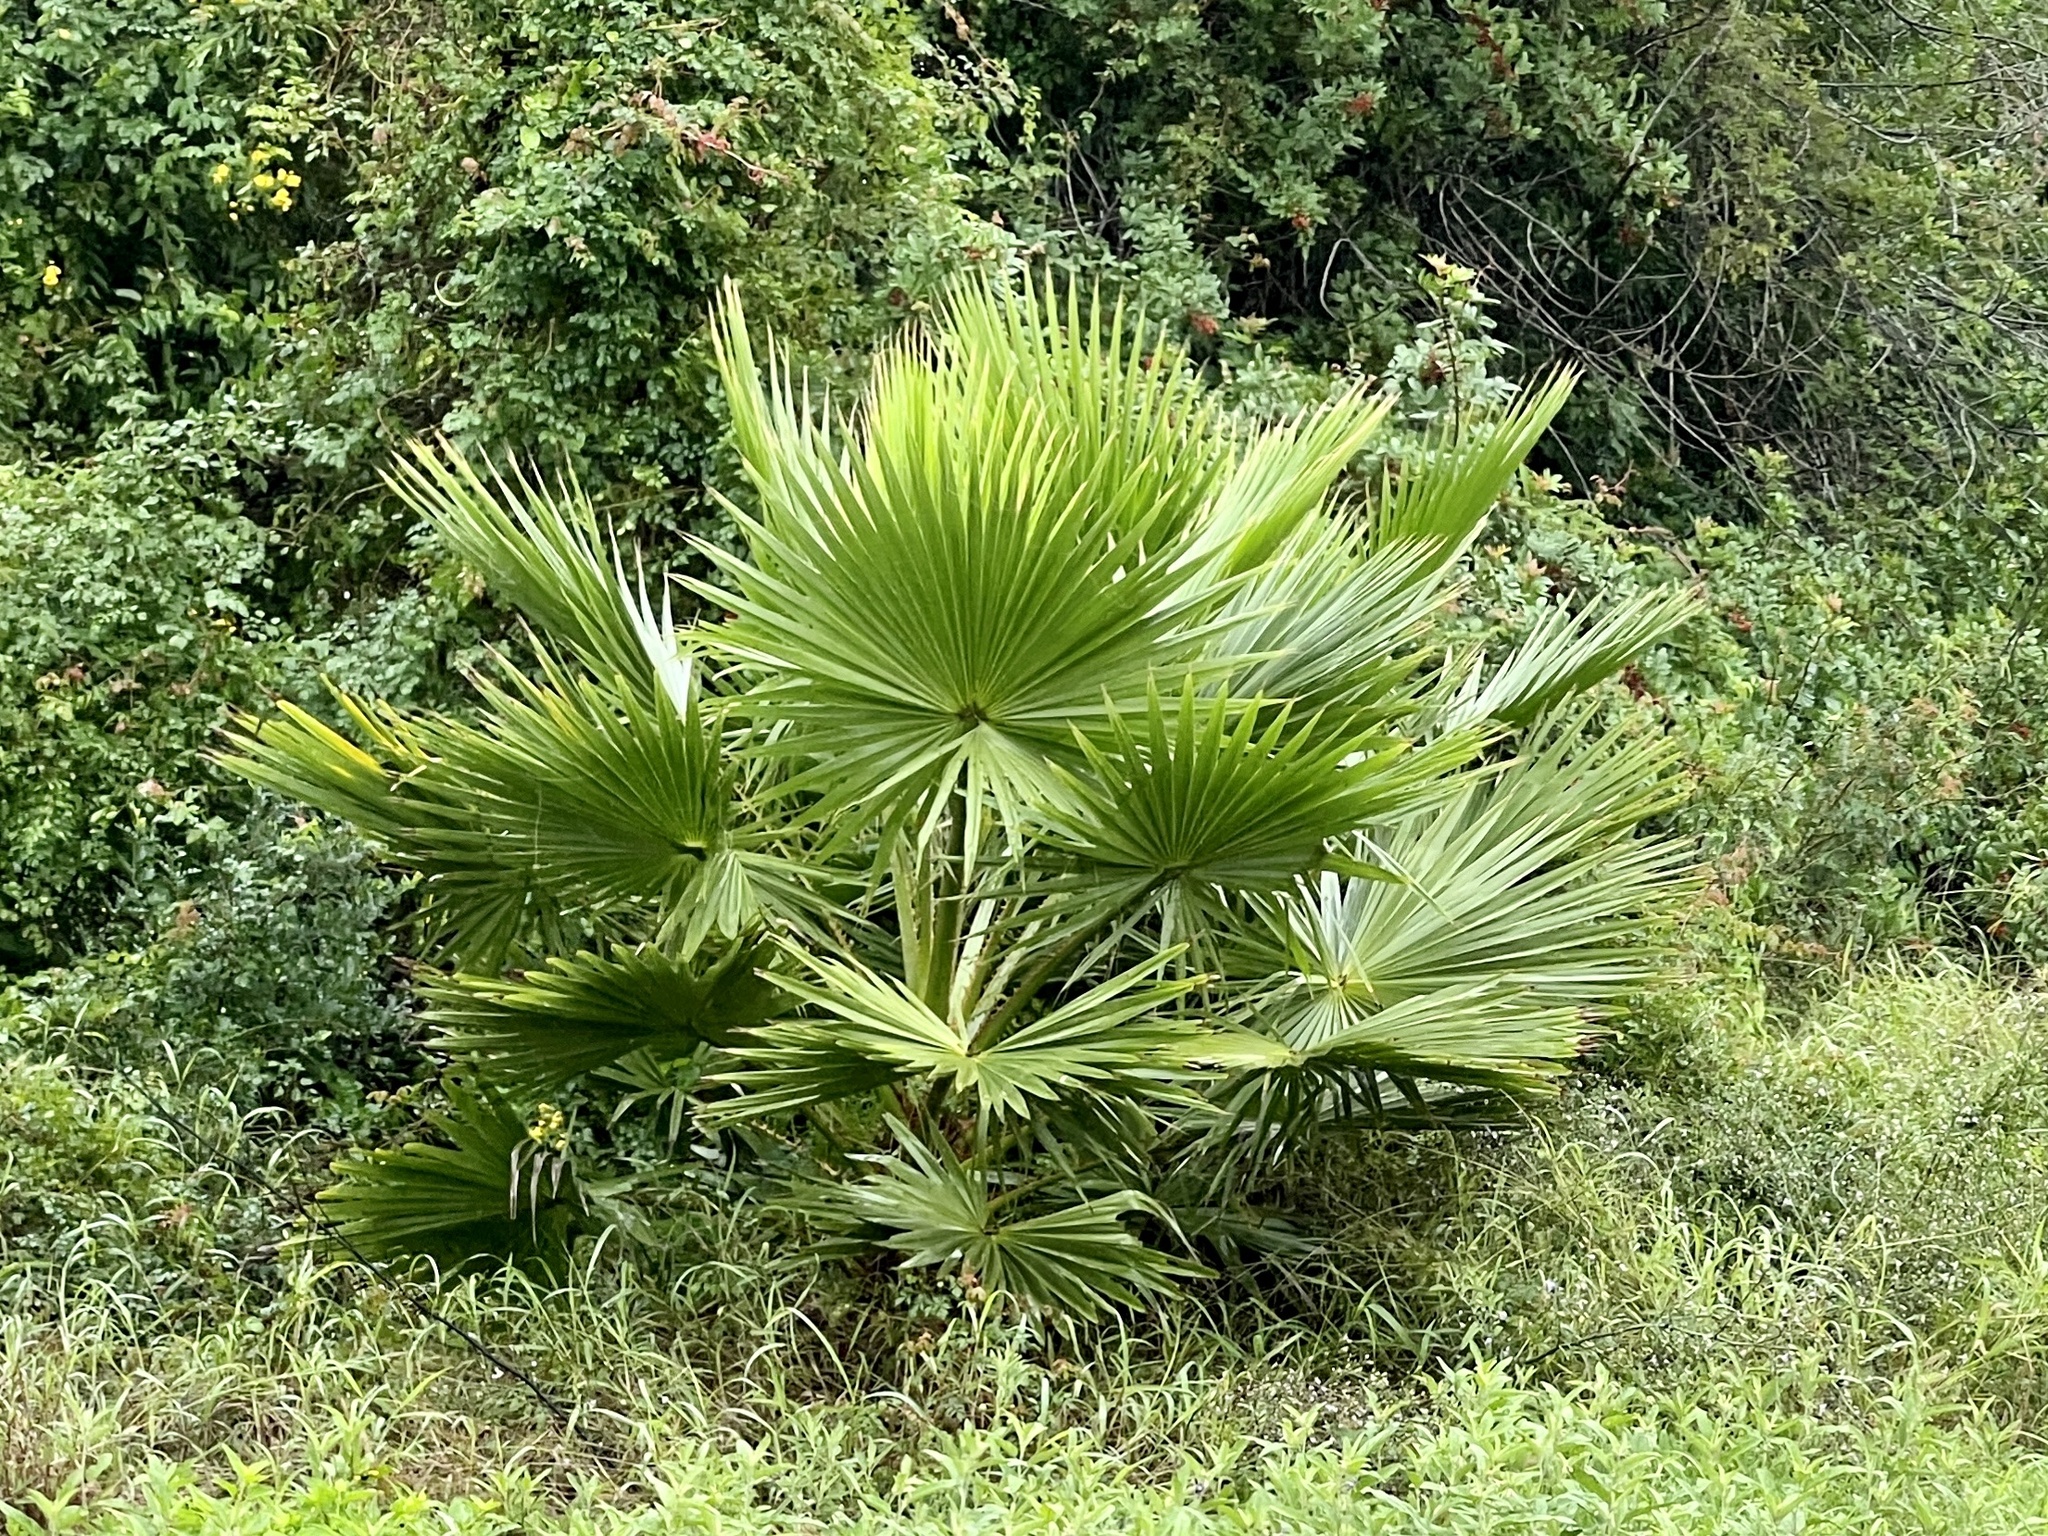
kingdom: Plantae
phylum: Tracheophyta
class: Liliopsida
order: Arecales
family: Arecaceae
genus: Washingtonia
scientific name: Washingtonia robusta
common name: Mexican fan palm
